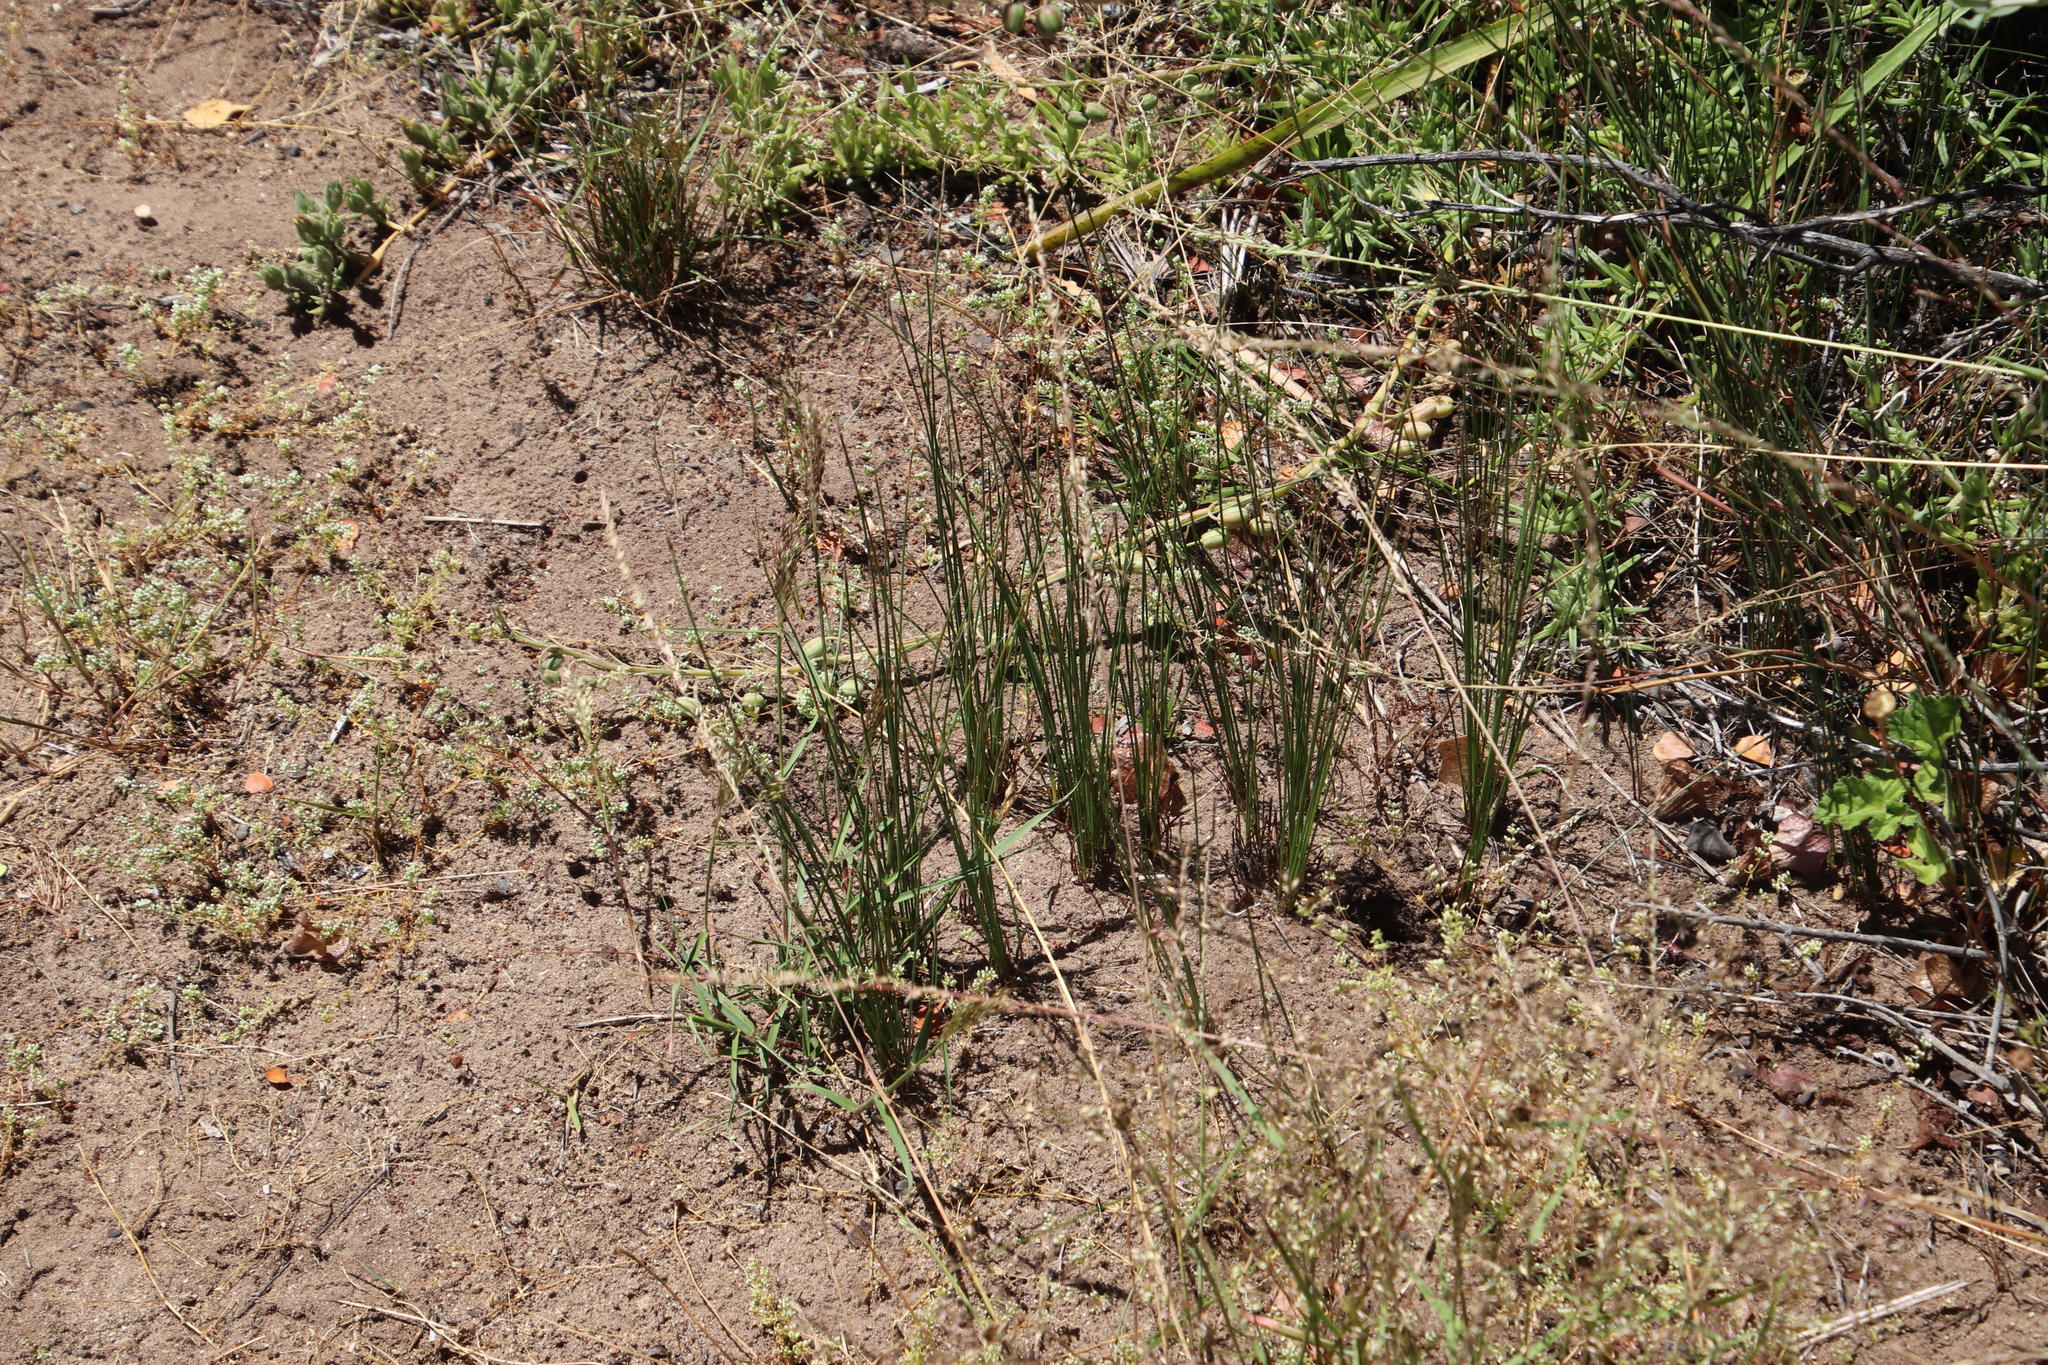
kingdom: Plantae
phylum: Tracheophyta
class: Liliopsida
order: Poales
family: Cyperaceae
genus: Ficinia
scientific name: Ficinia indica
